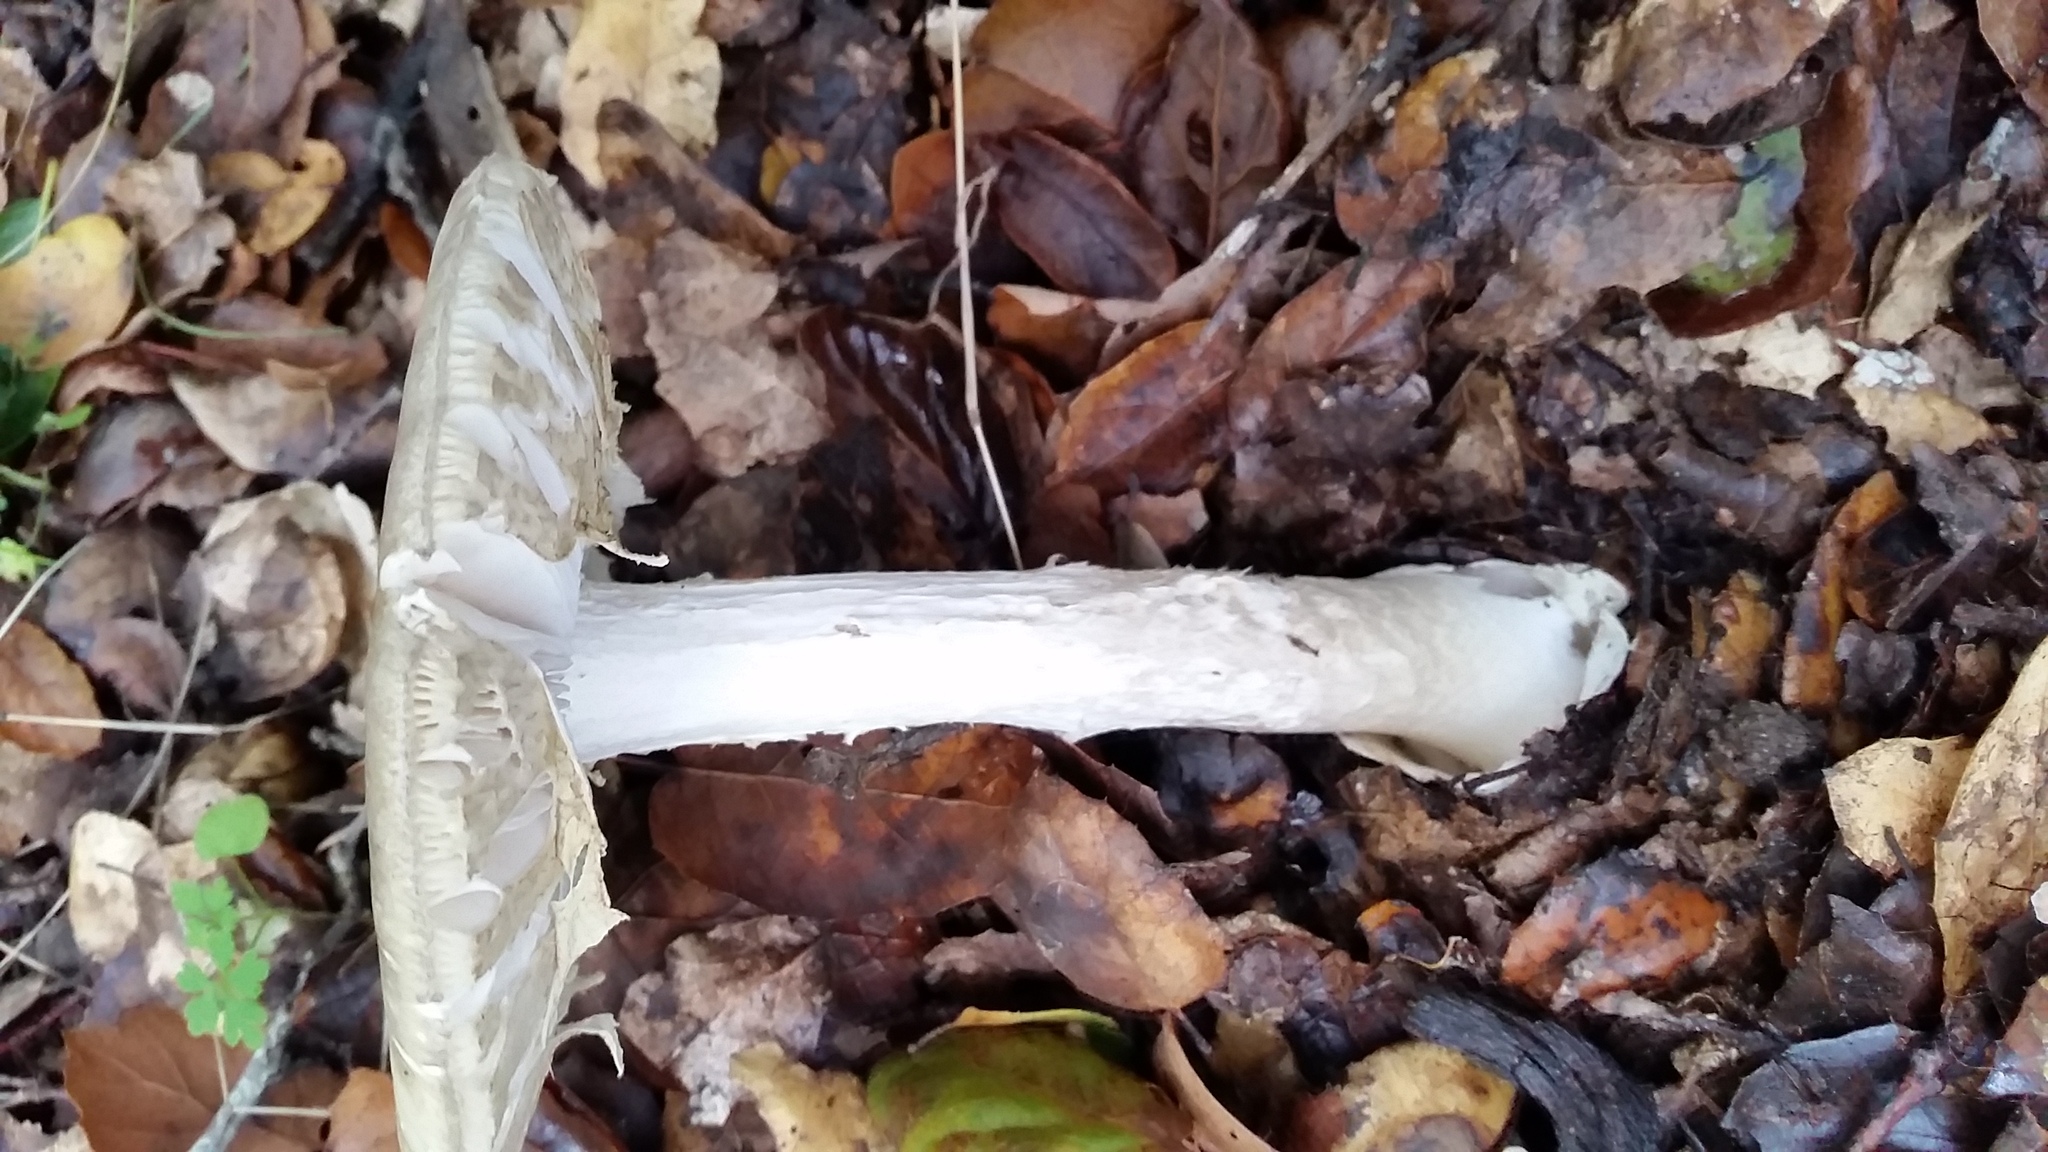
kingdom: Fungi
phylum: Basidiomycota
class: Agaricomycetes
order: Agaricales
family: Amanitaceae
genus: Amanita
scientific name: Amanita phalloides
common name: Death cap
